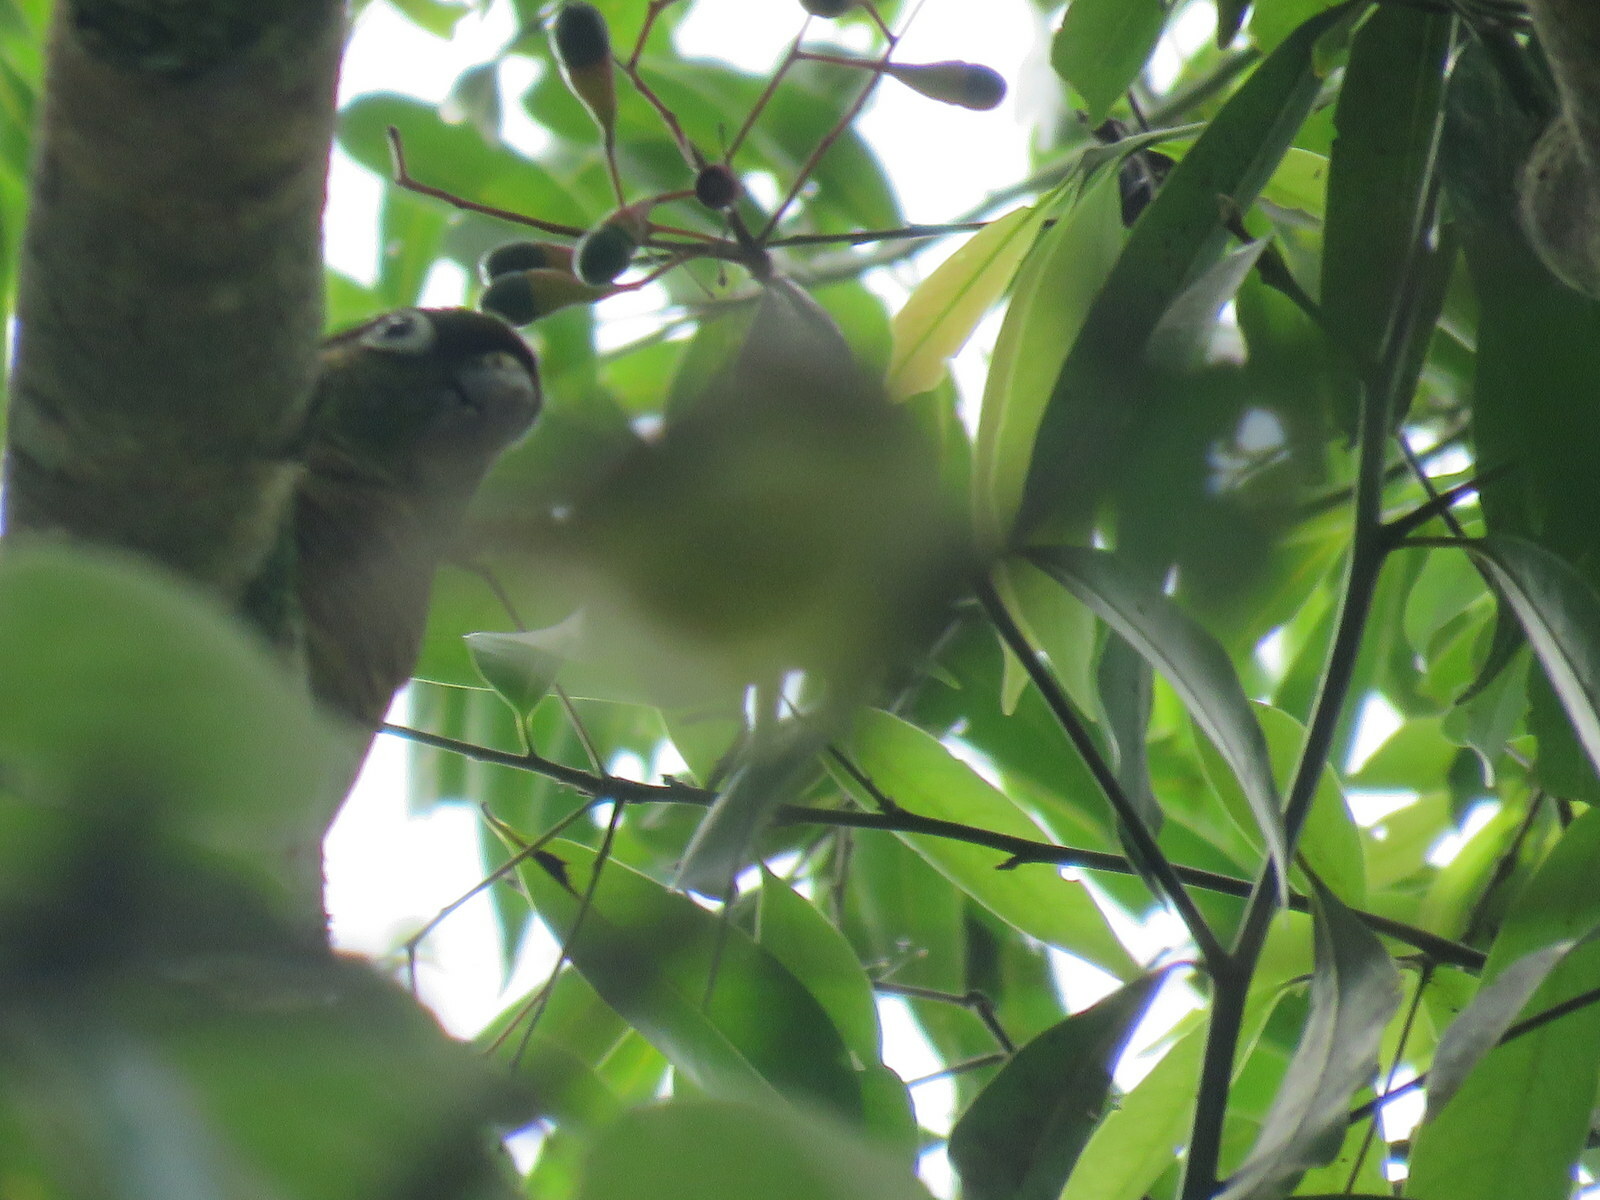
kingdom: Animalia
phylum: Chordata
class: Aves
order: Psittaciformes
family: Psittacidae
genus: Pyrrhura
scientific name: Pyrrhura frontalis
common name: Maroon-bellied parakeet
